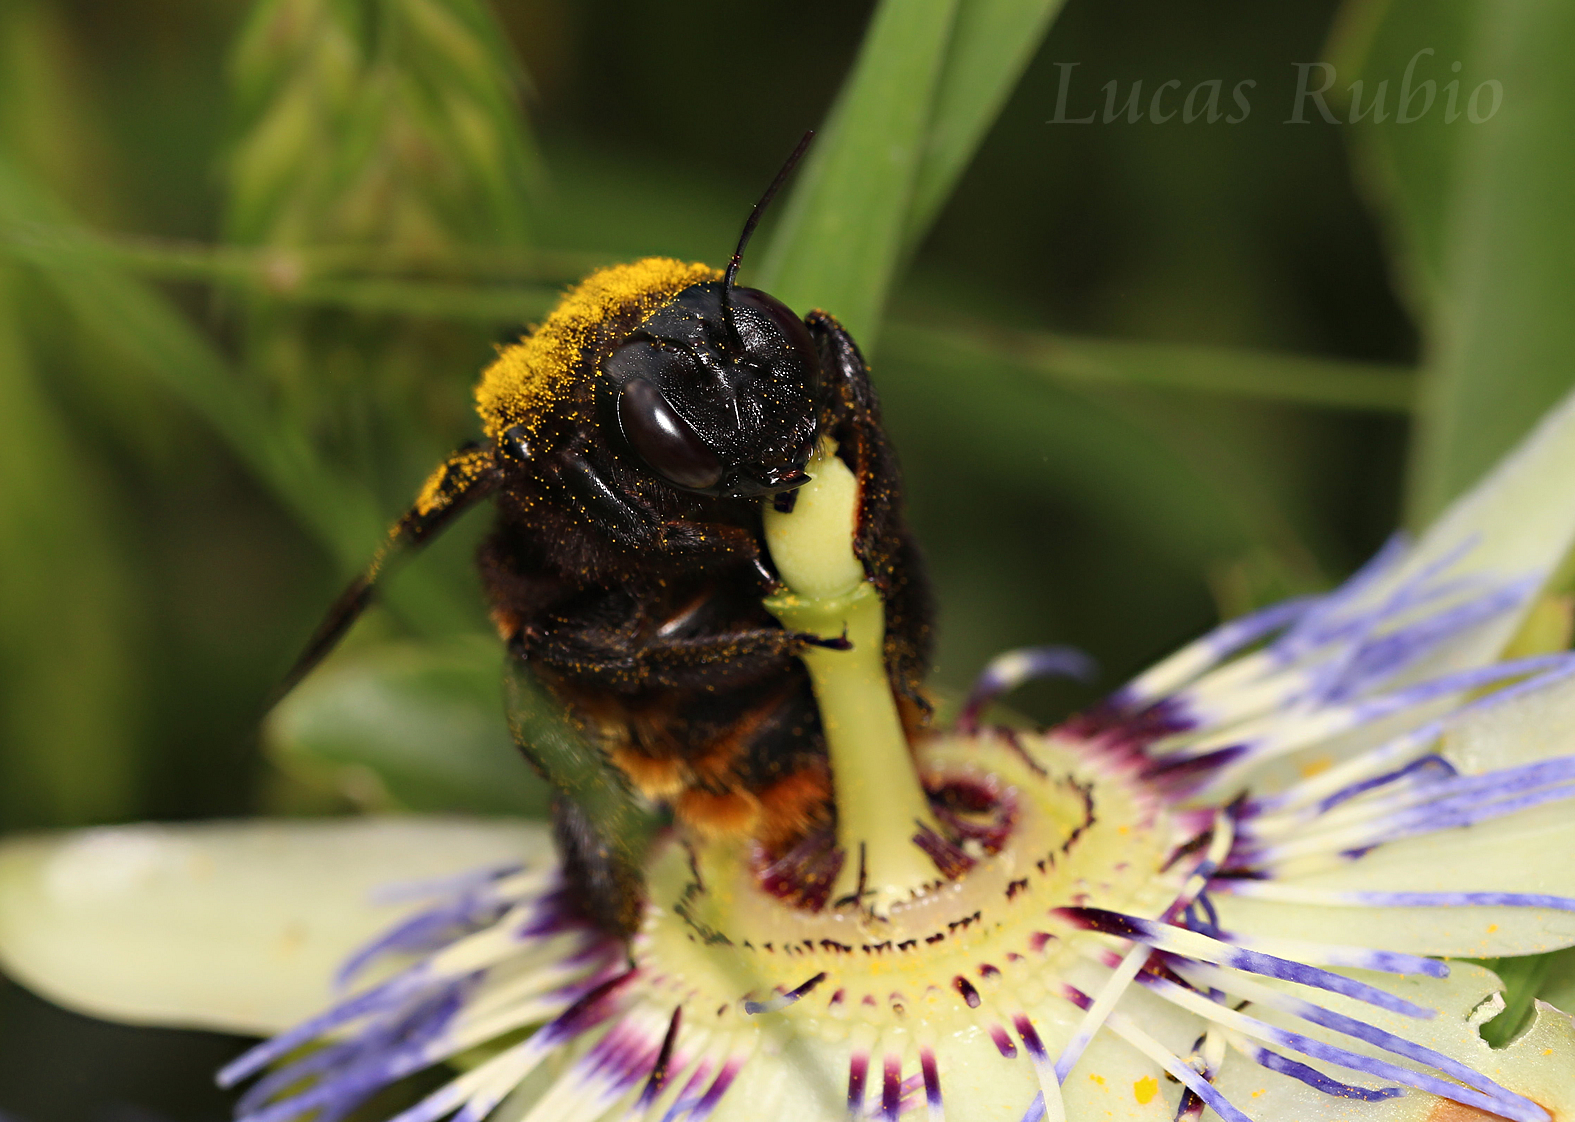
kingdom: Animalia
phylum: Arthropoda
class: Insecta
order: Hymenoptera
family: Apidae
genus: Xylocopa
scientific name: Xylocopa augusti
